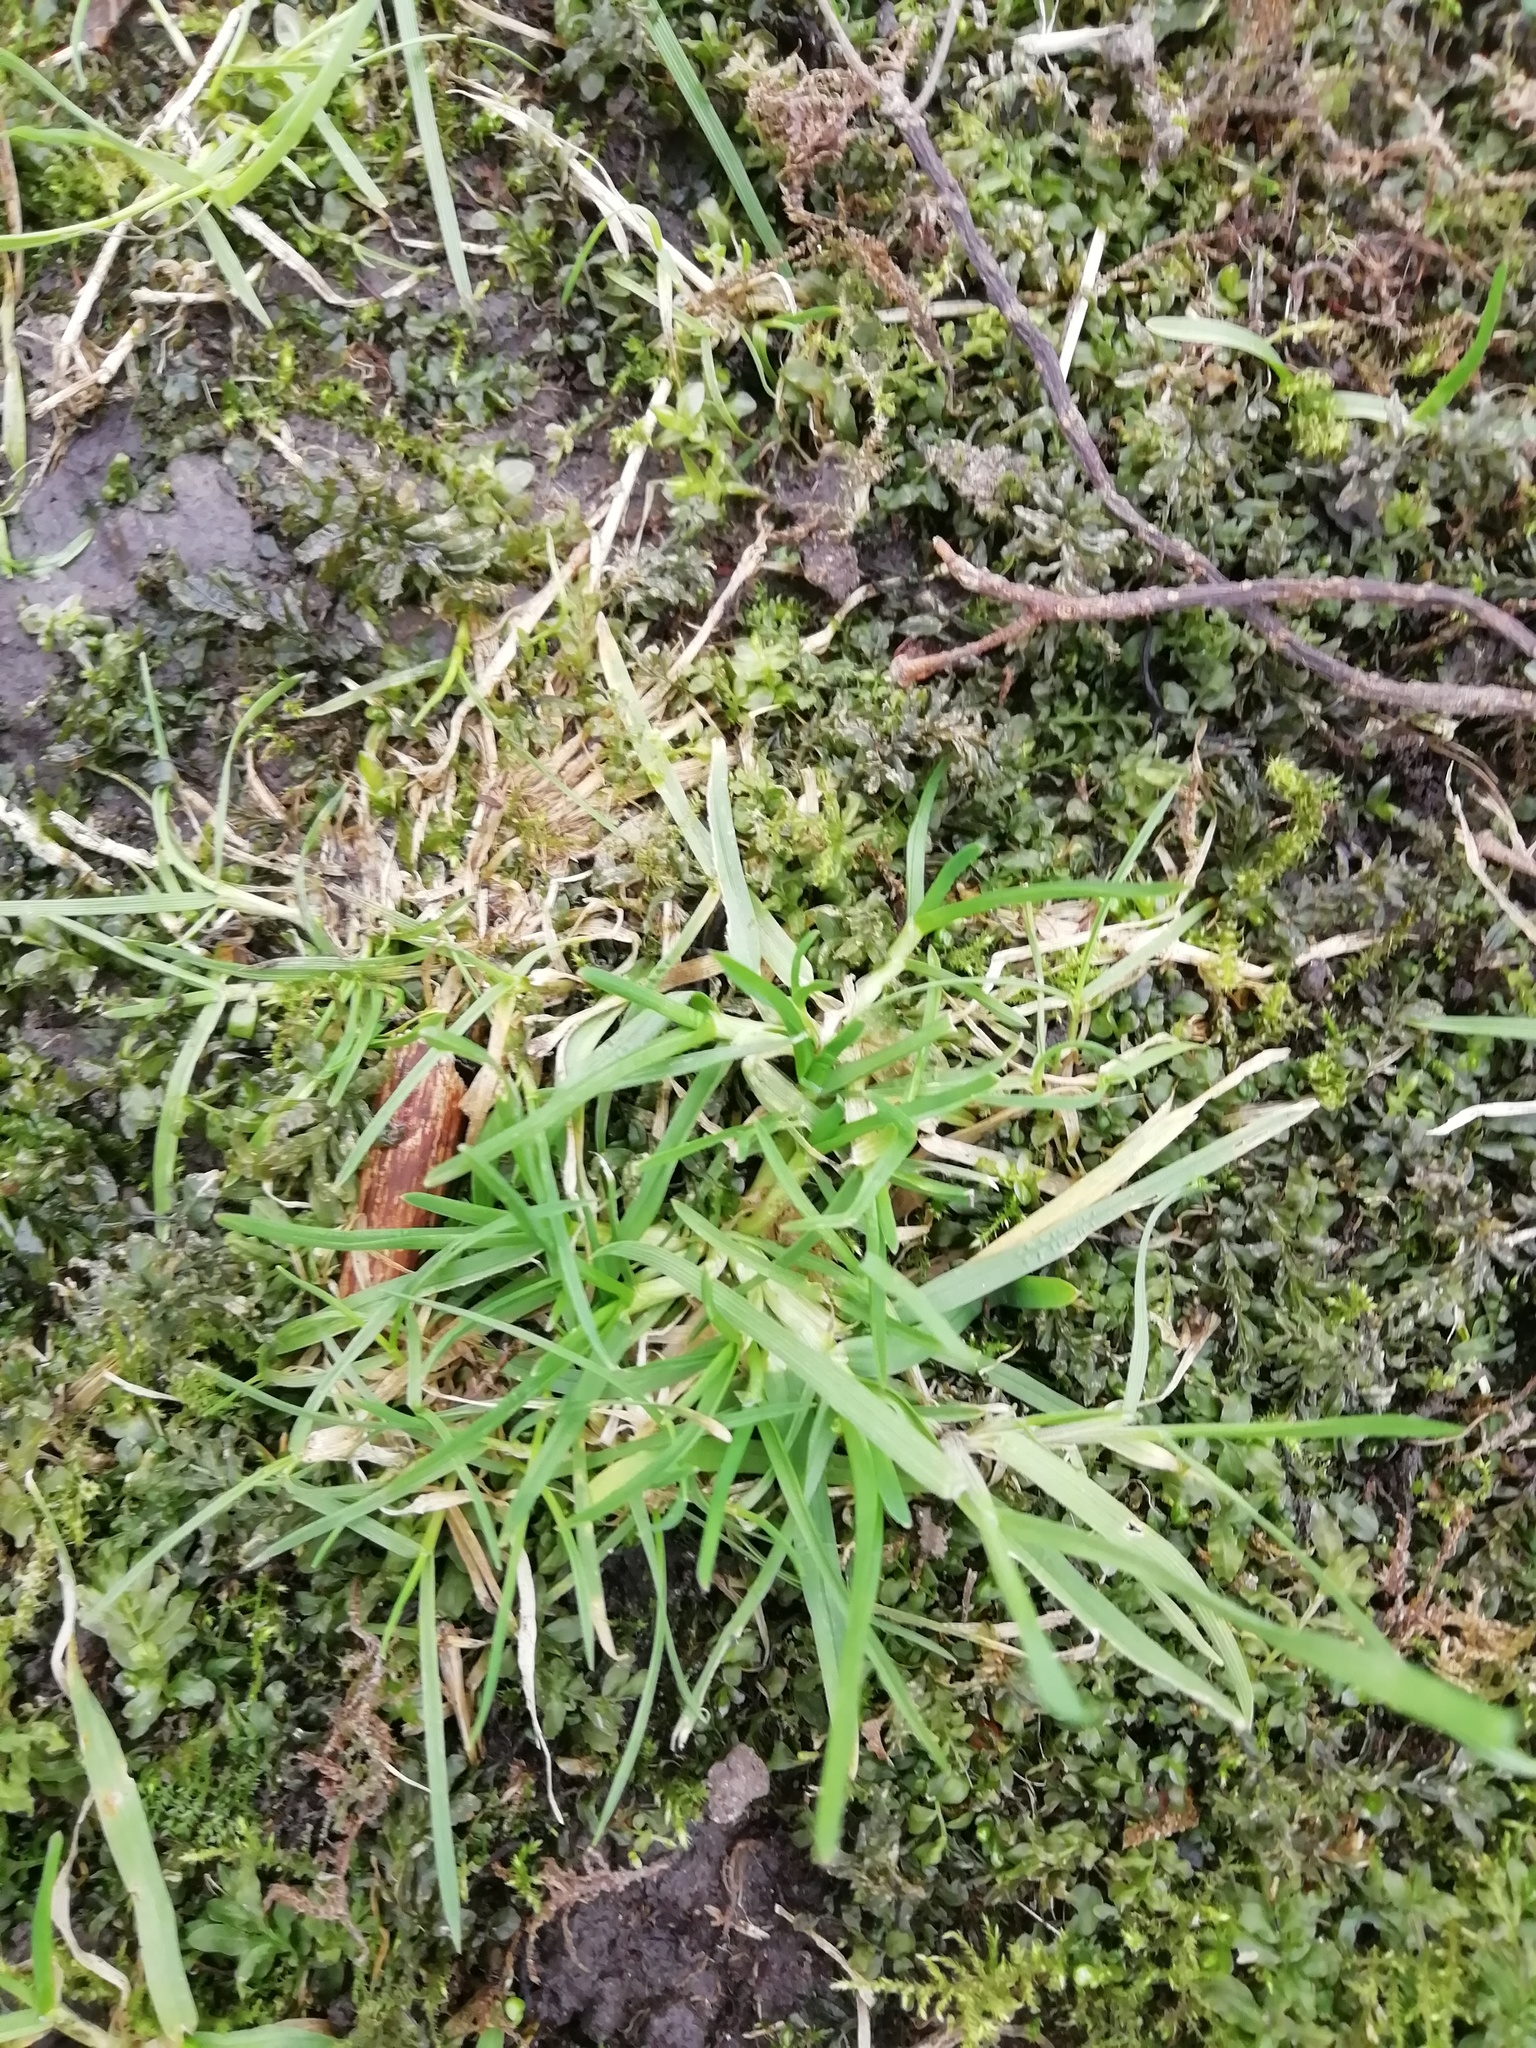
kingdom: Plantae
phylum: Tracheophyta
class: Liliopsida
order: Poales
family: Poaceae
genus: Poa
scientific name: Poa annua
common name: Annual bluegrass
